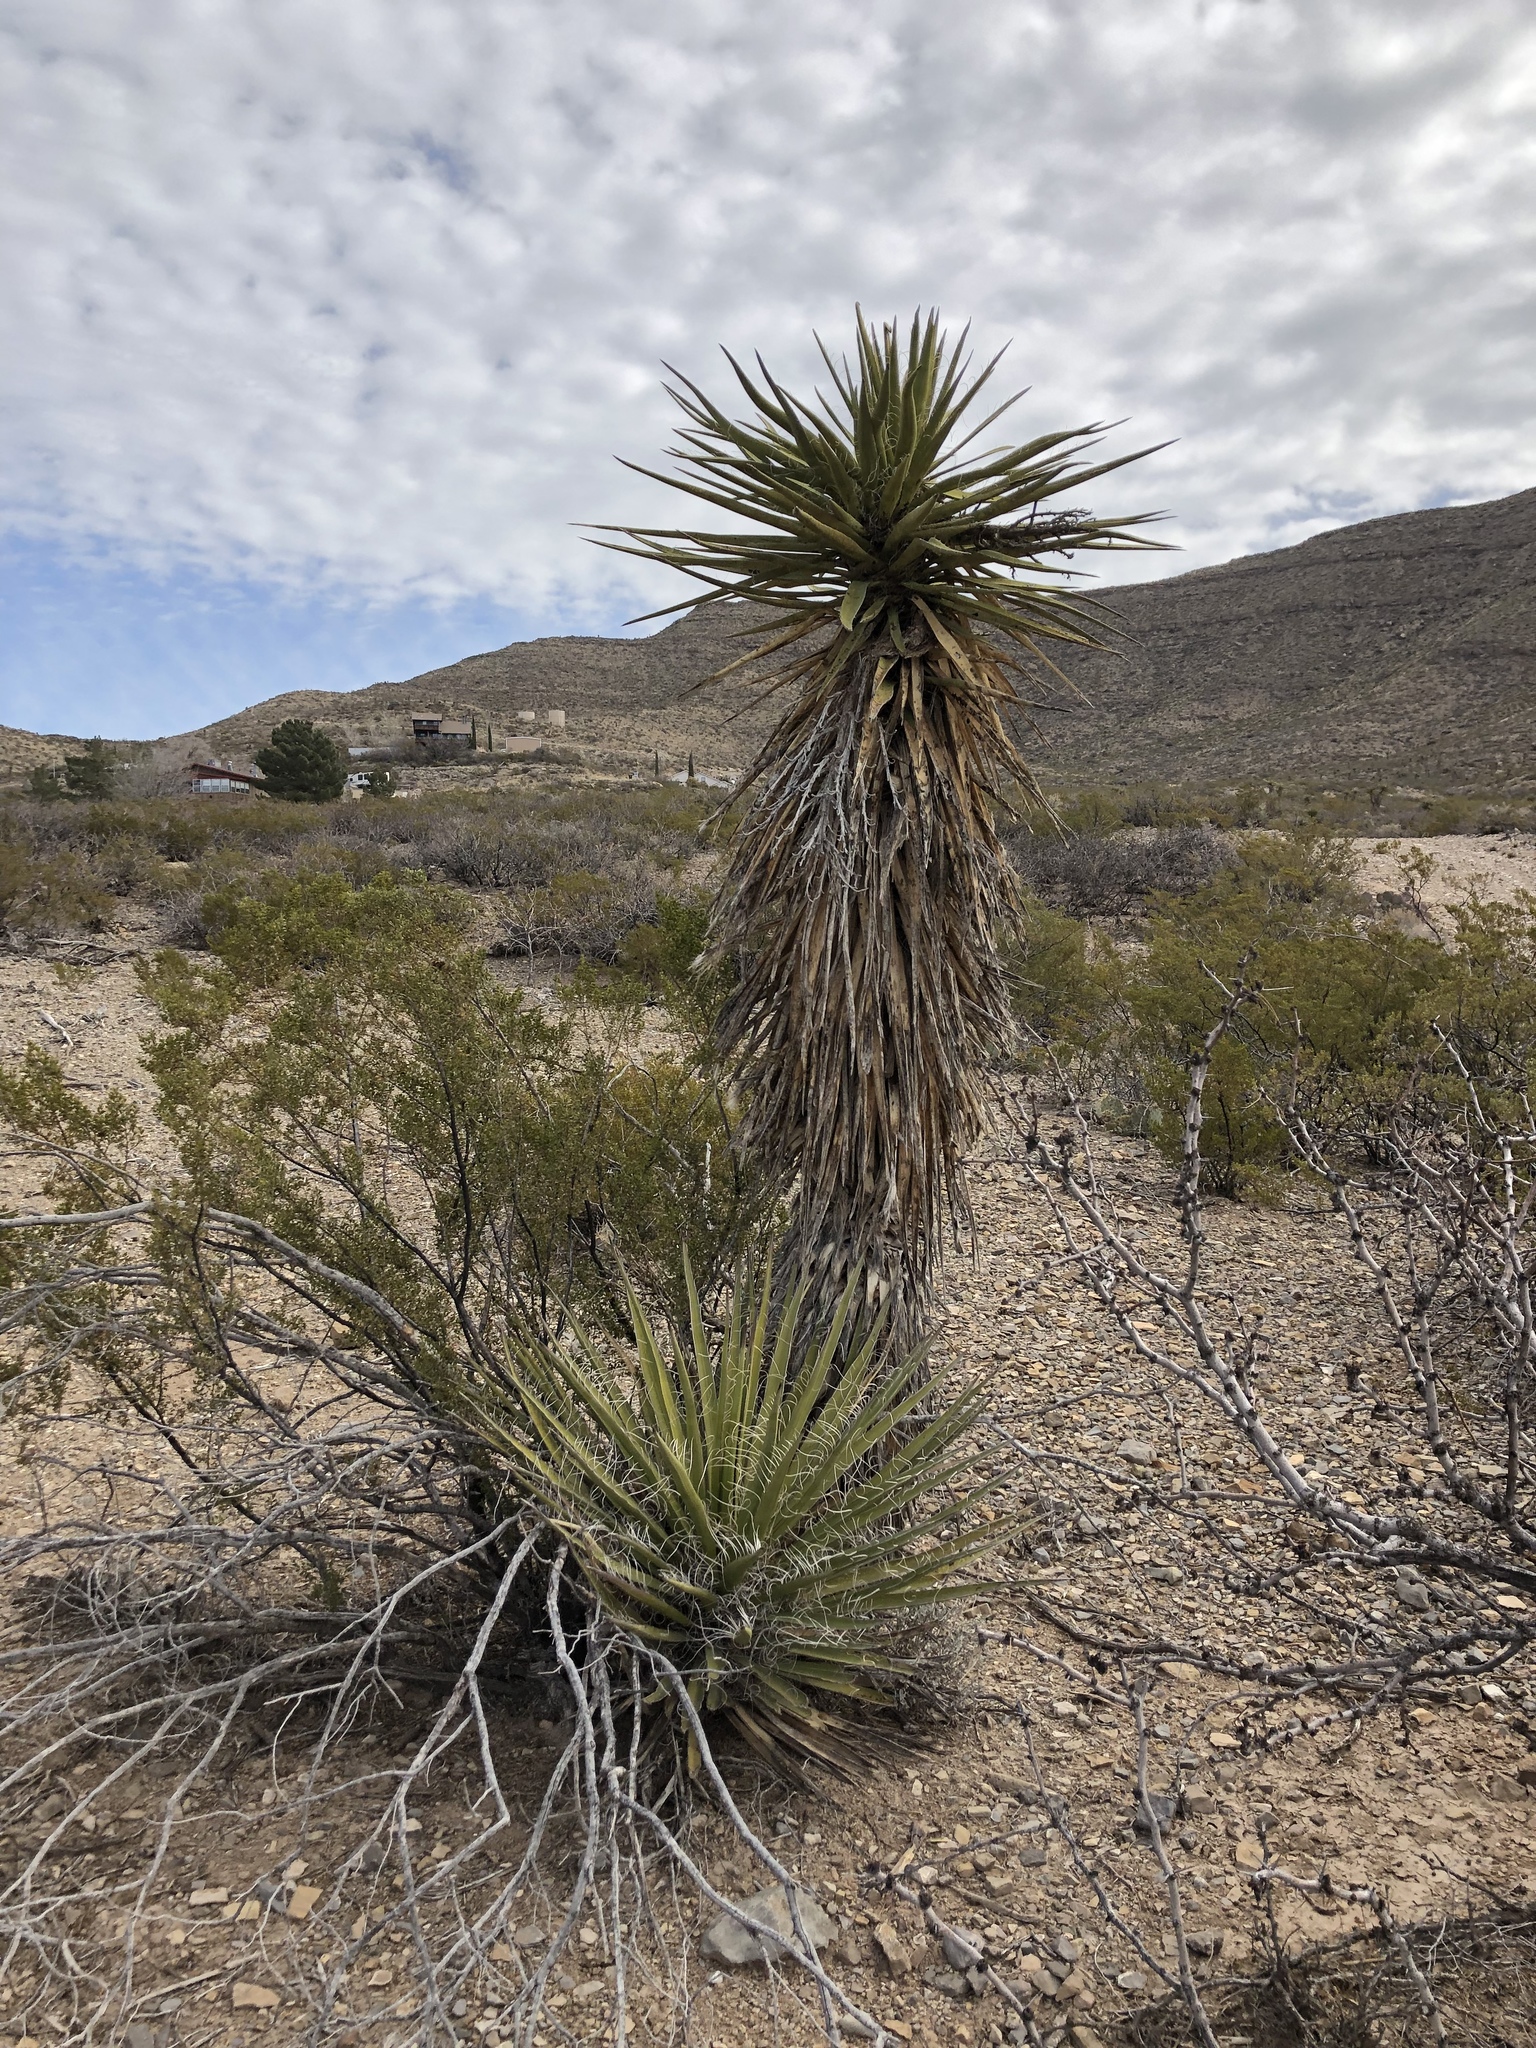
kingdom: Plantae
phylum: Tracheophyta
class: Liliopsida
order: Asparagales
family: Asparagaceae
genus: Yucca
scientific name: Yucca treculiana
